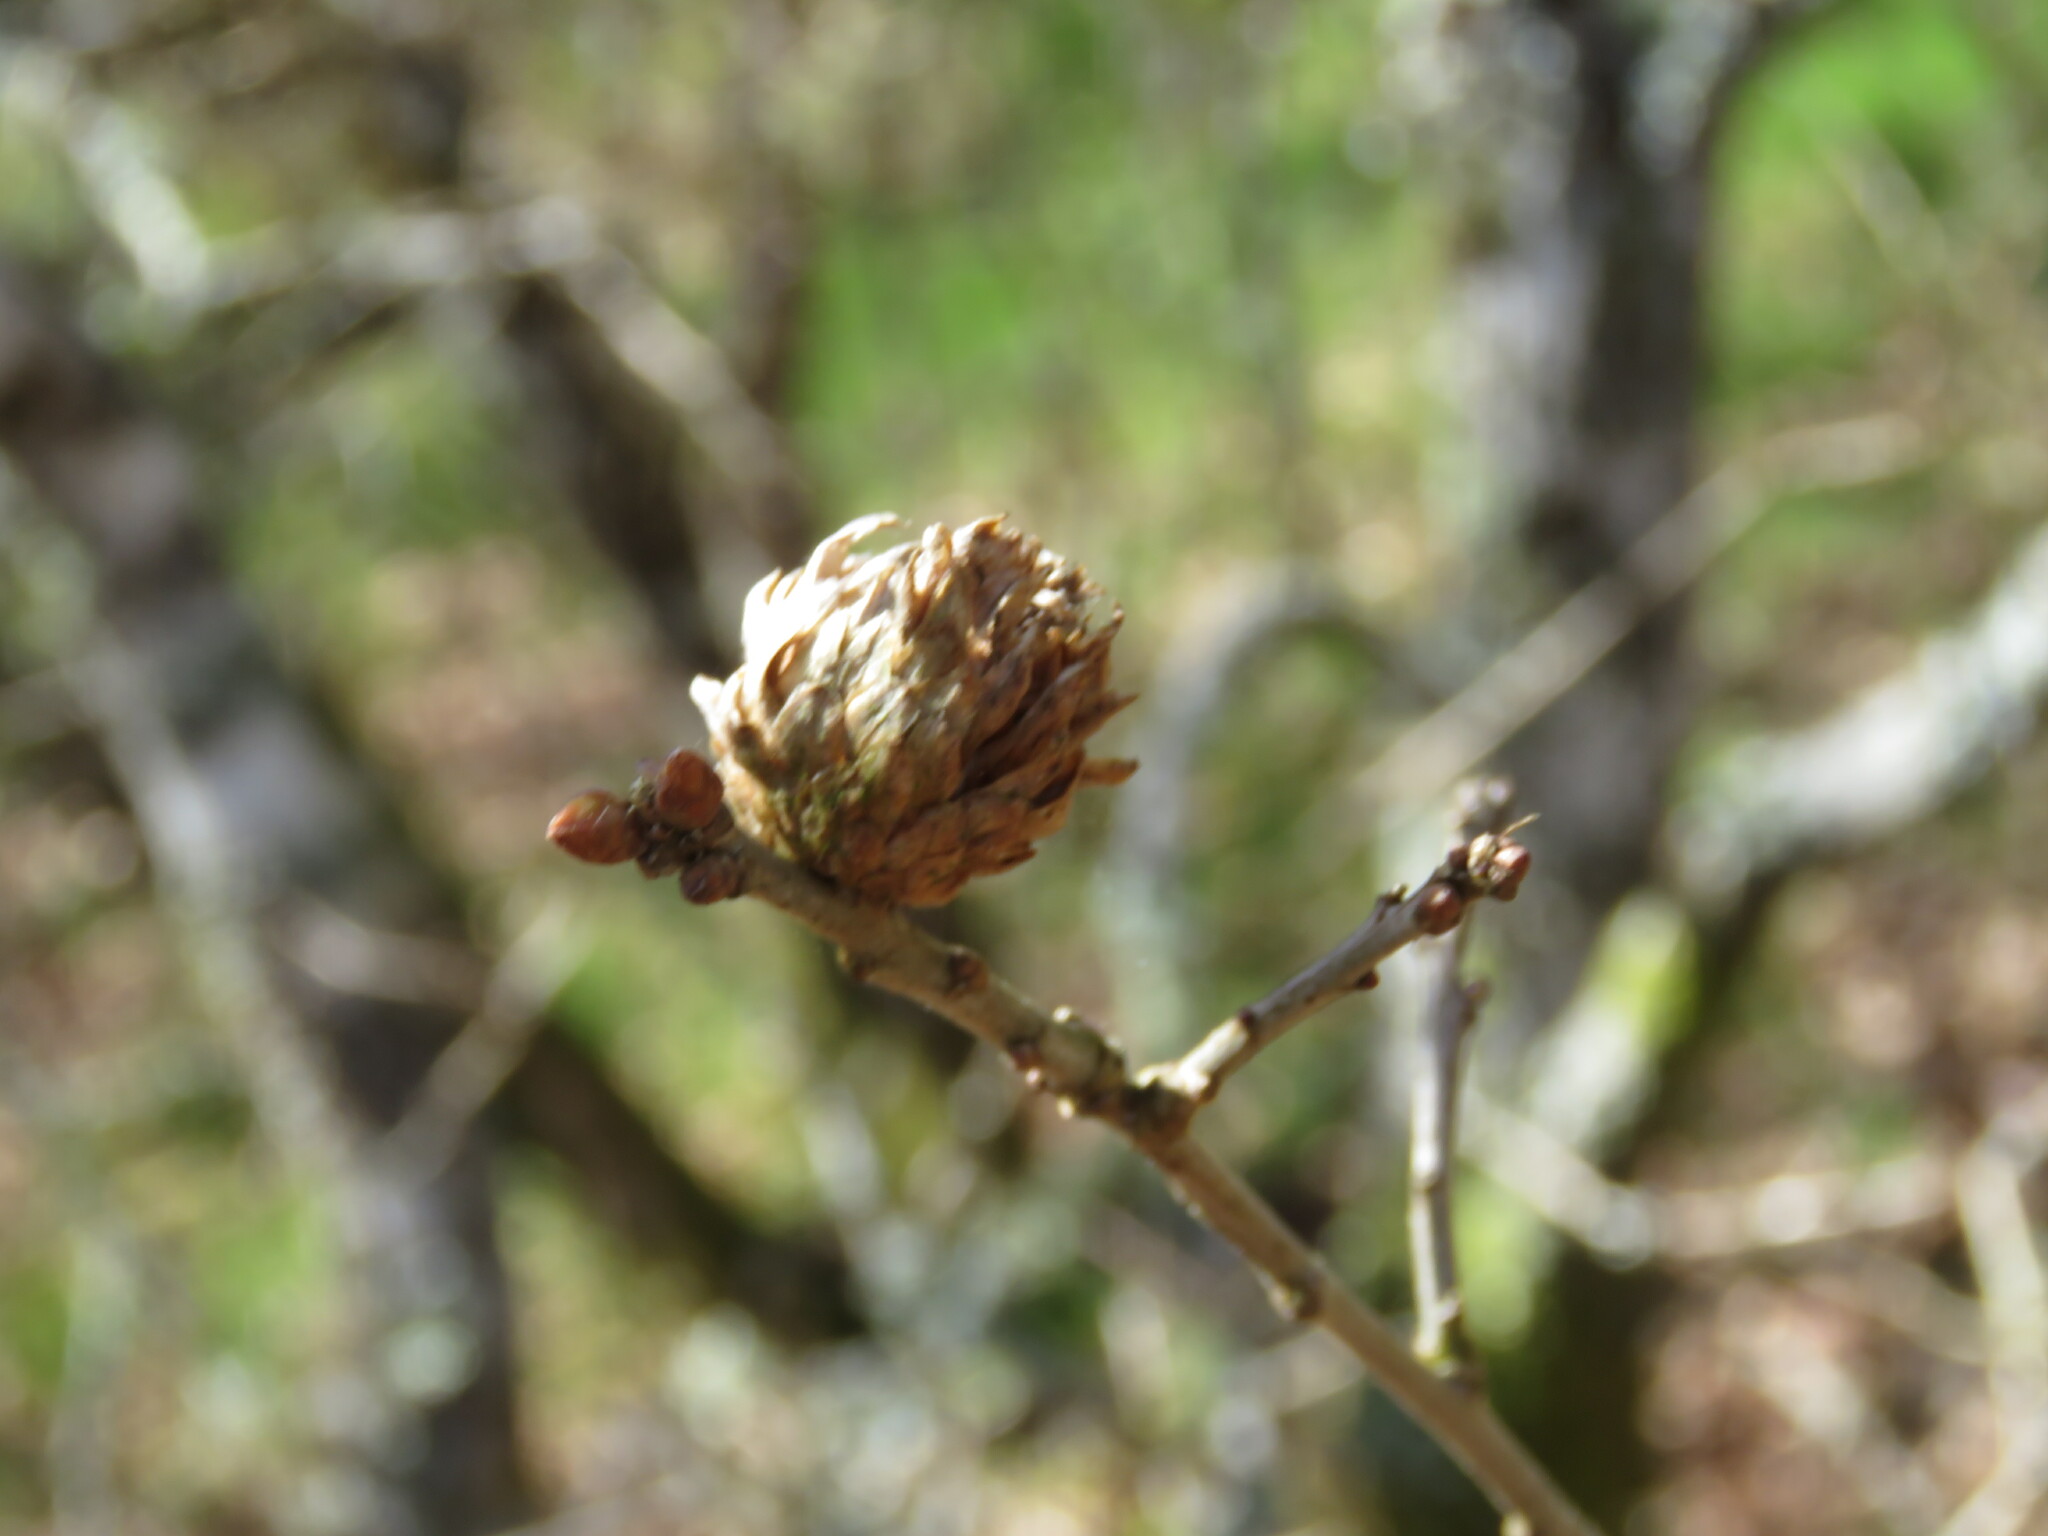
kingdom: Animalia
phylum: Arthropoda
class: Insecta
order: Hymenoptera
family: Cynipidae
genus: Andricus
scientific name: Andricus foecundatrix
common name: Artichoke gall
